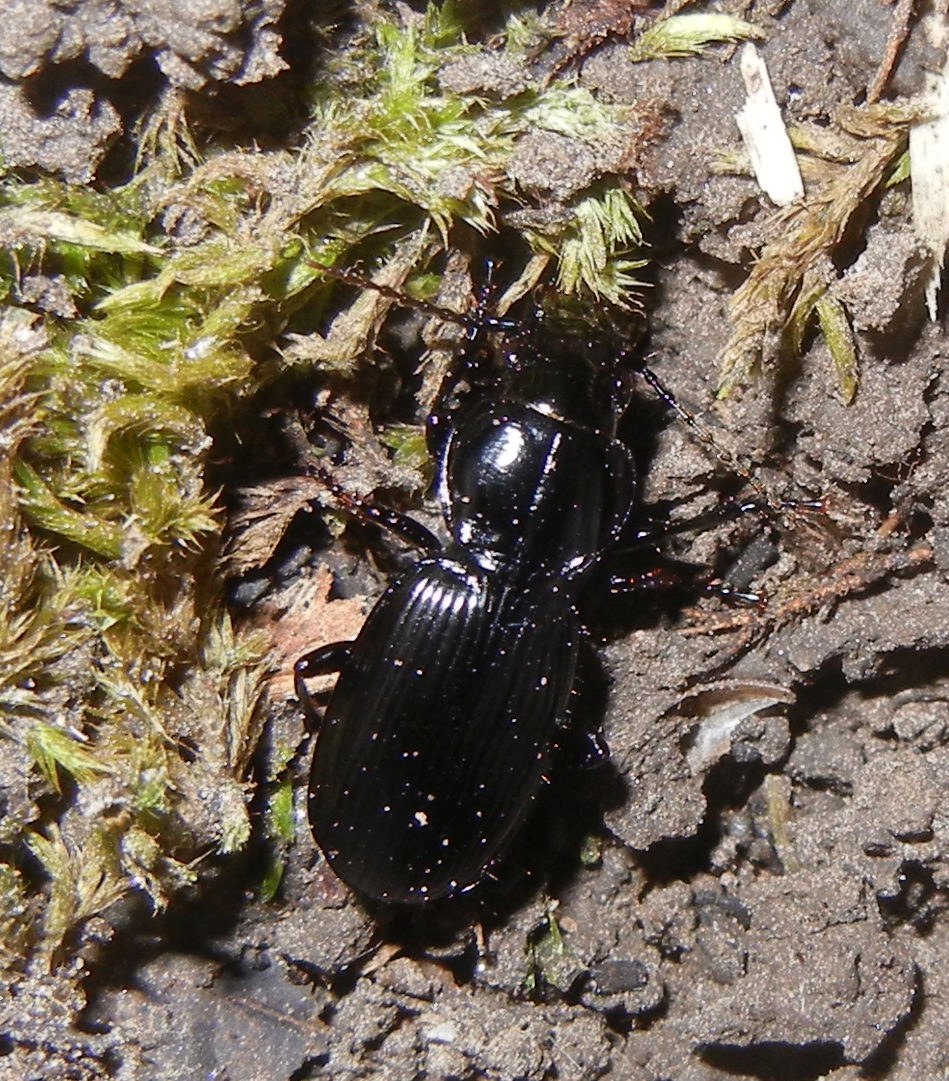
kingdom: Animalia
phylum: Arthropoda
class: Insecta
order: Coleoptera
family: Carabidae
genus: Pterostichus
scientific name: Pterostichus madidus
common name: Black clock
